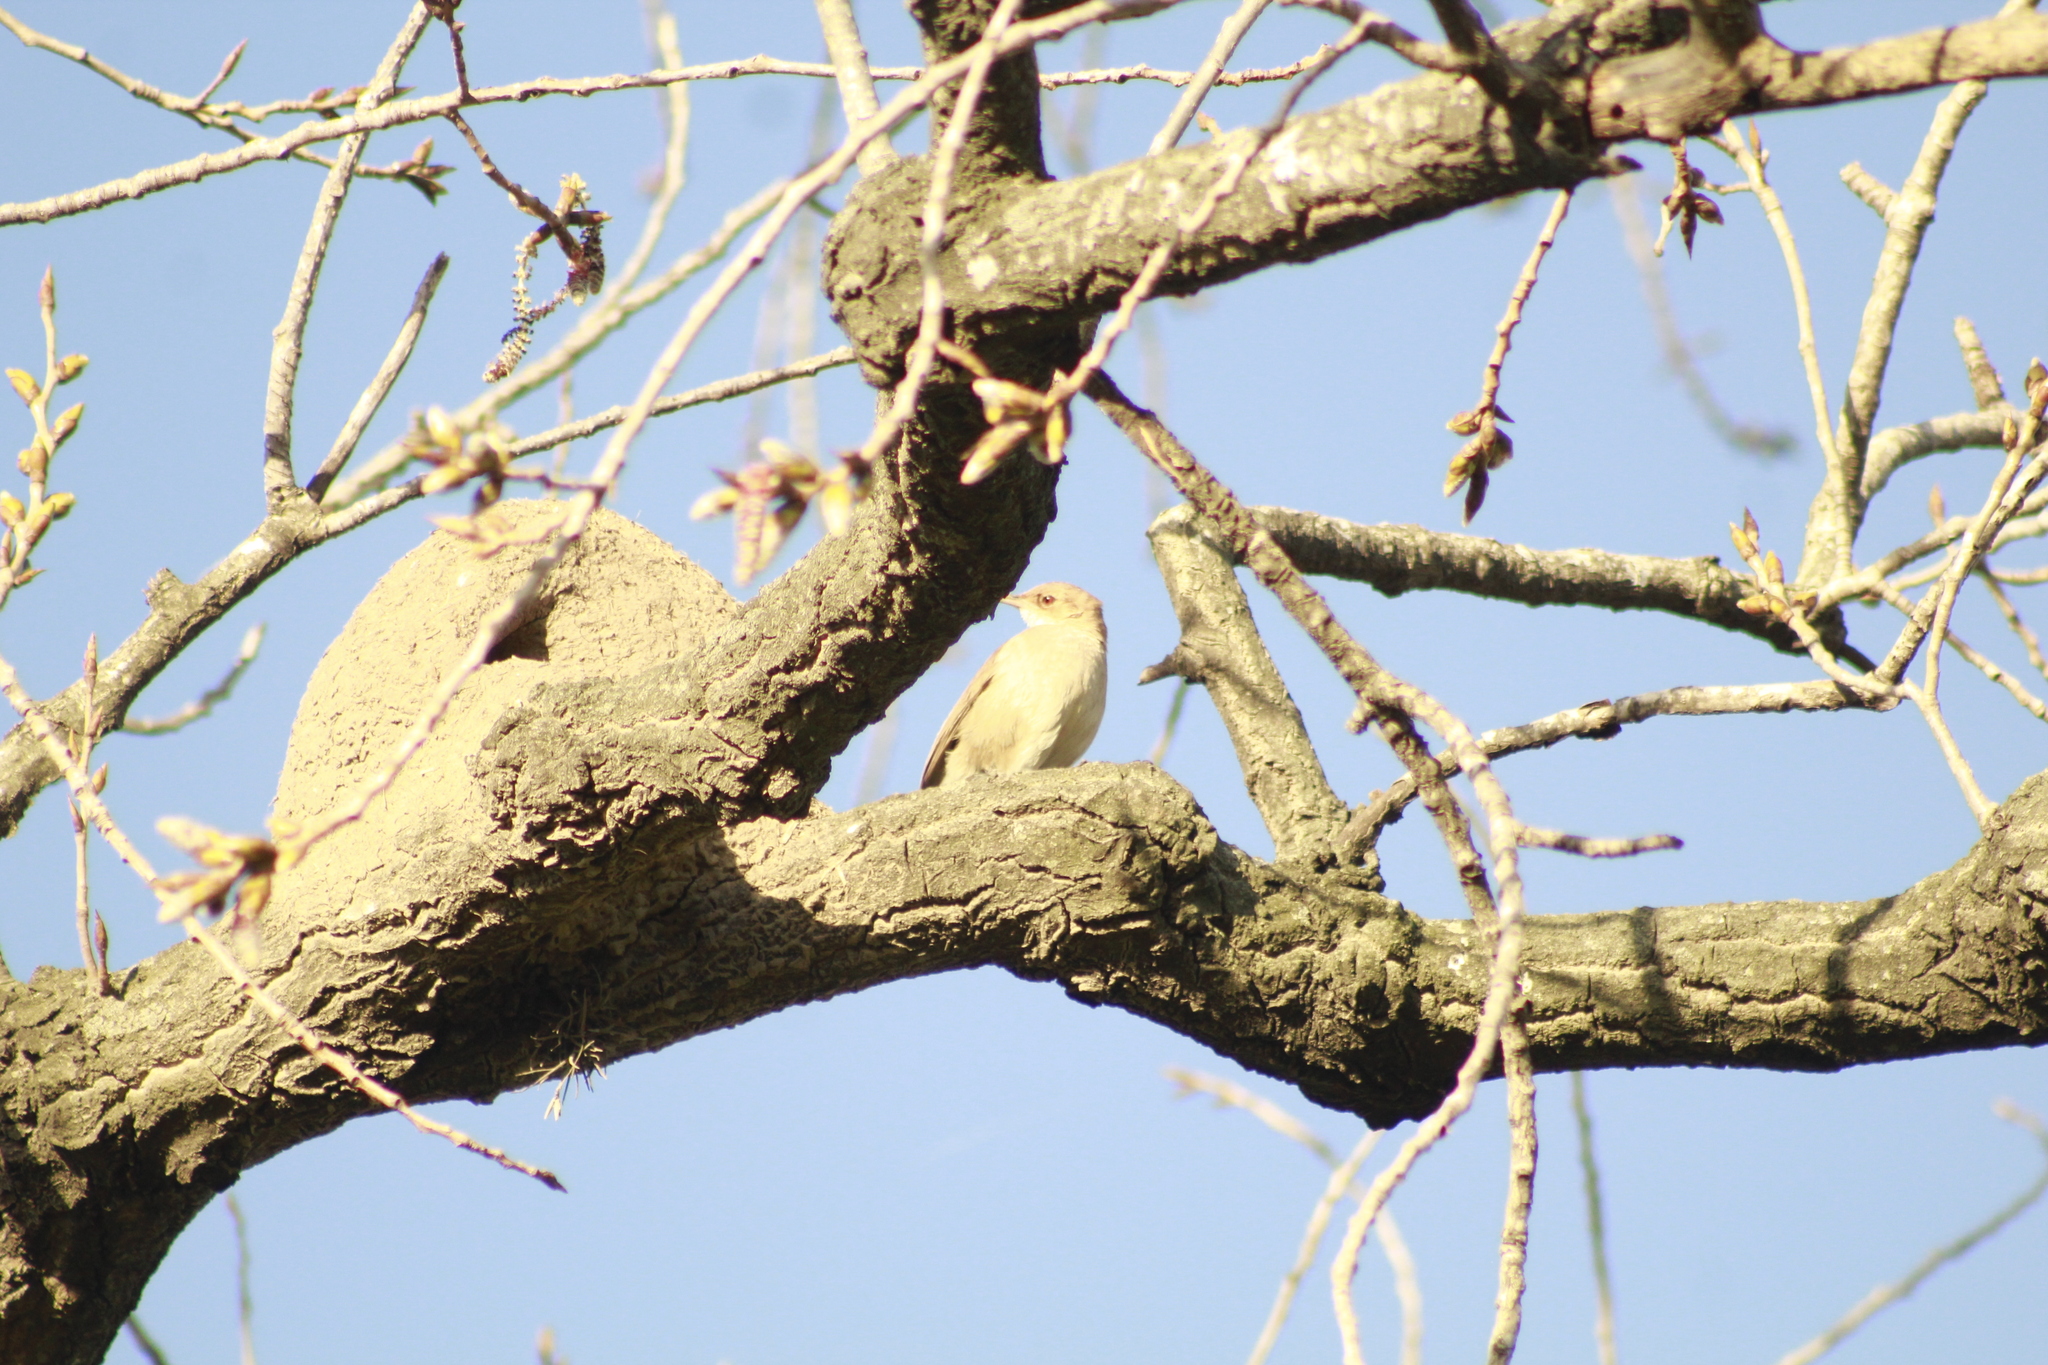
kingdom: Animalia
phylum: Chordata
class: Aves
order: Passeriformes
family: Furnariidae
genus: Furnarius
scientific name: Furnarius rufus
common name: Rufous hornero
